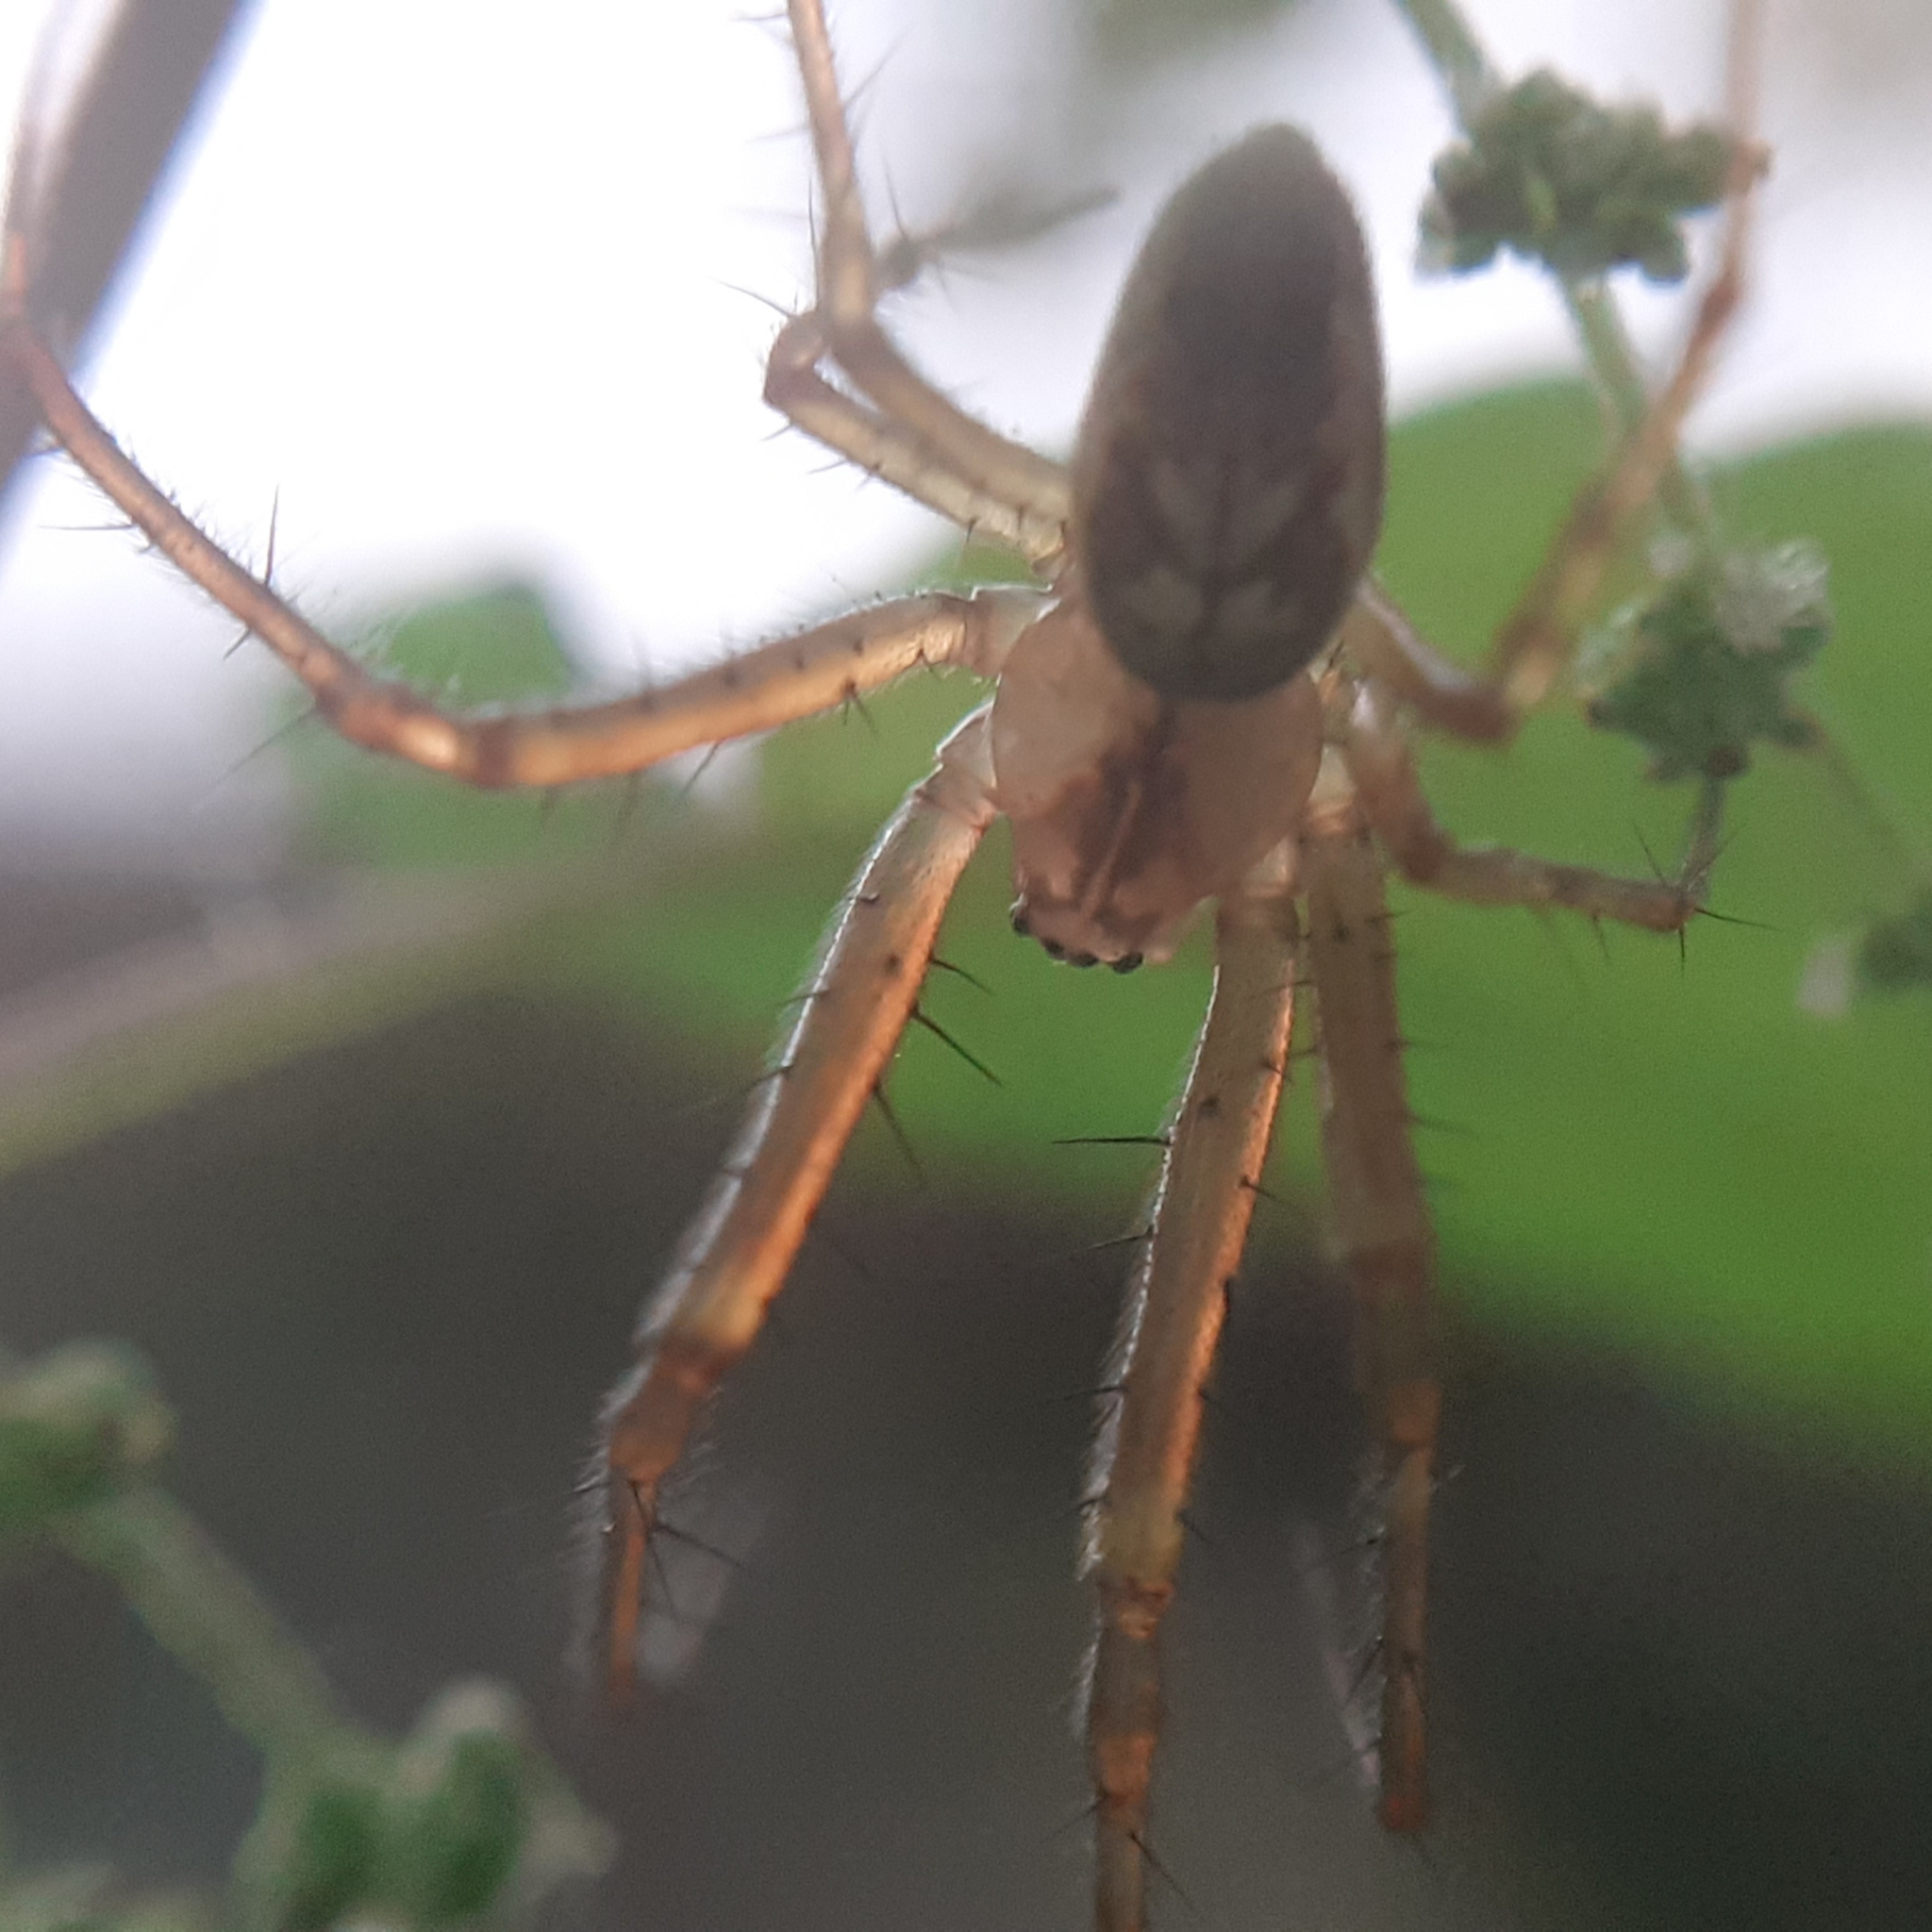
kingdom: Animalia
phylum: Arthropoda
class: Arachnida
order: Araneae
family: Tetragnathidae
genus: Metellina
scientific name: Metellina segmentata
